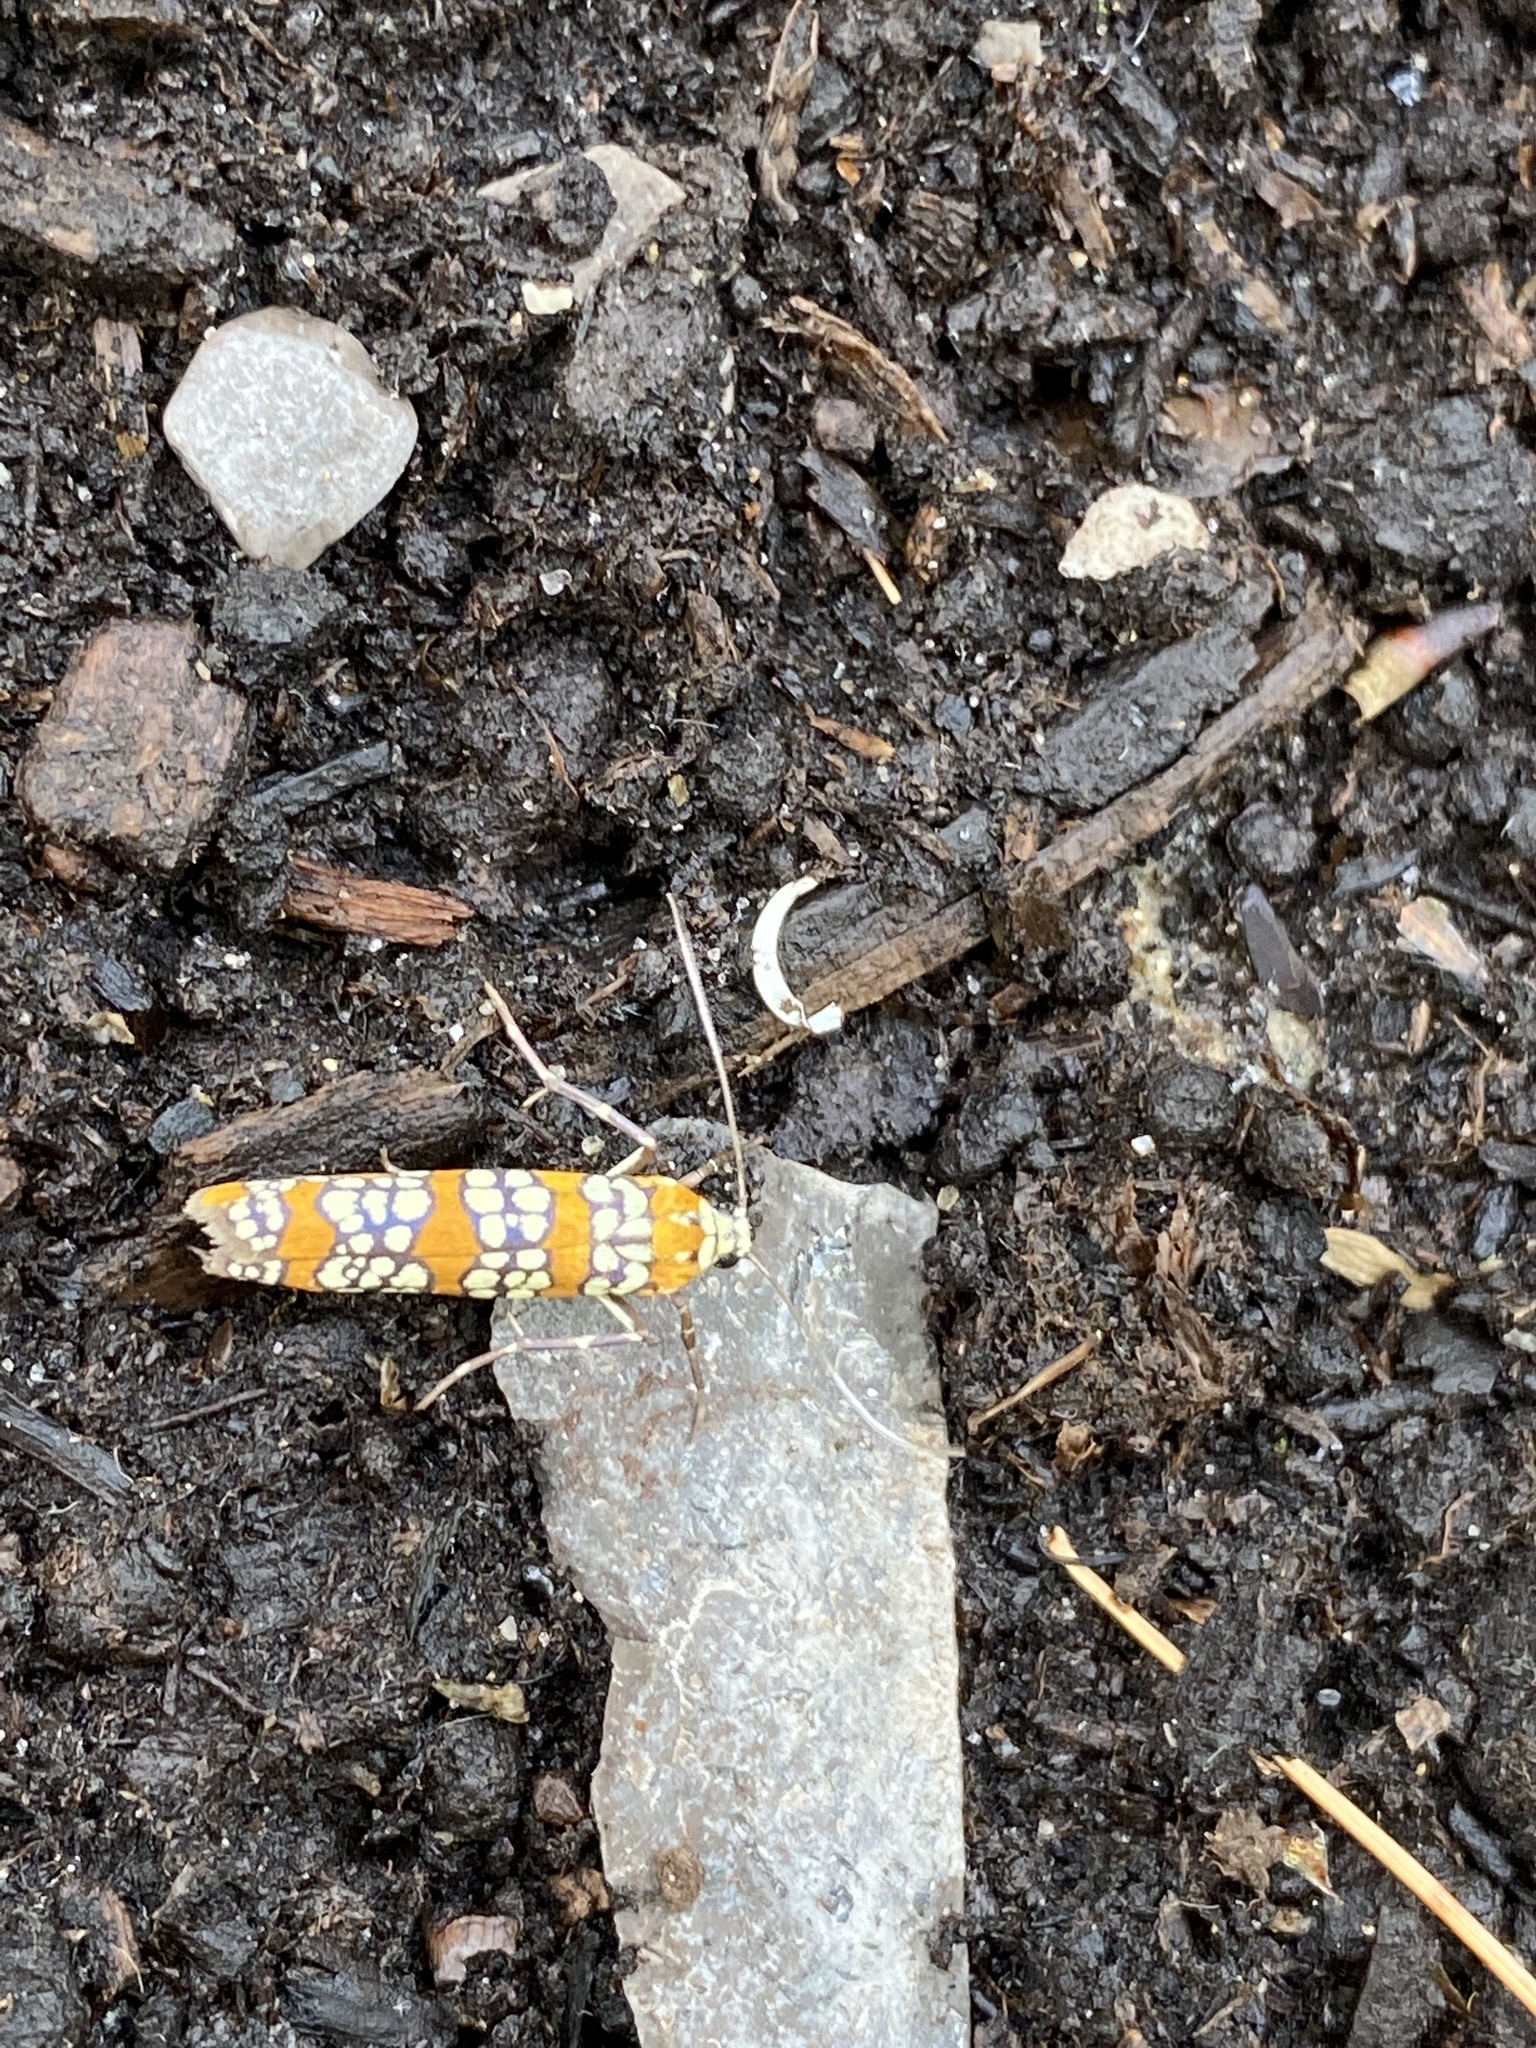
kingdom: Animalia
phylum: Arthropoda
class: Insecta
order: Lepidoptera
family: Attevidae
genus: Atteva
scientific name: Atteva punctella
